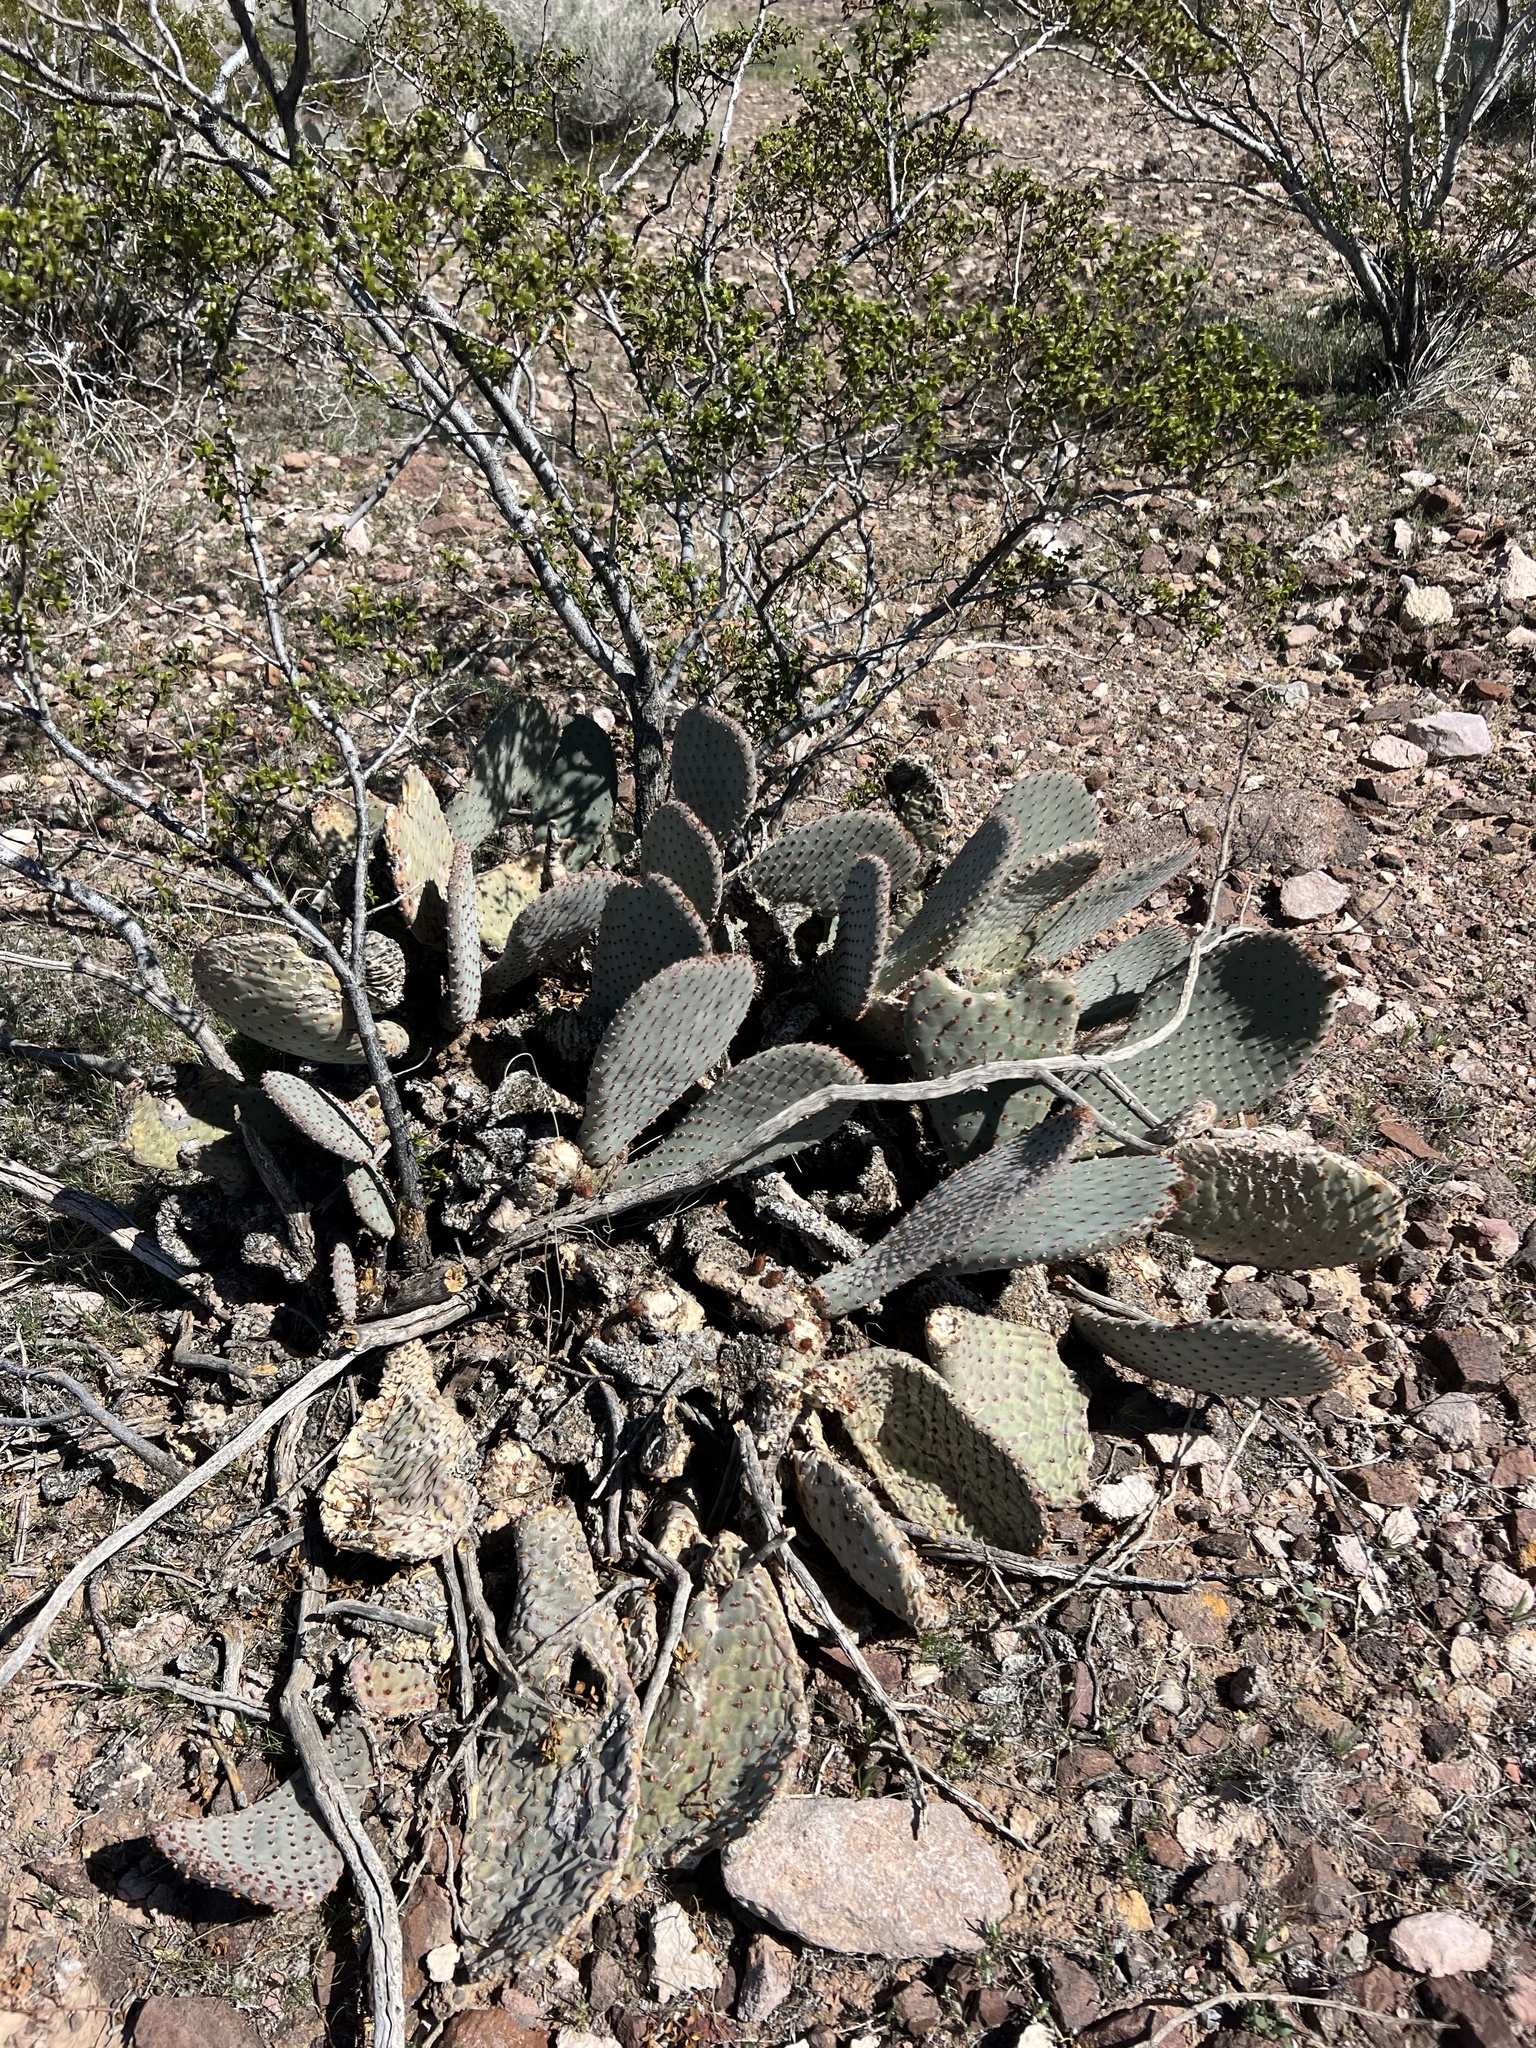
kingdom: Plantae
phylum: Tracheophyta
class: Magnoliopsida
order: Caryophyllales
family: Cactaceae
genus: Opuntia
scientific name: Opuntia basilaris
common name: Beavertail prickly-pear
